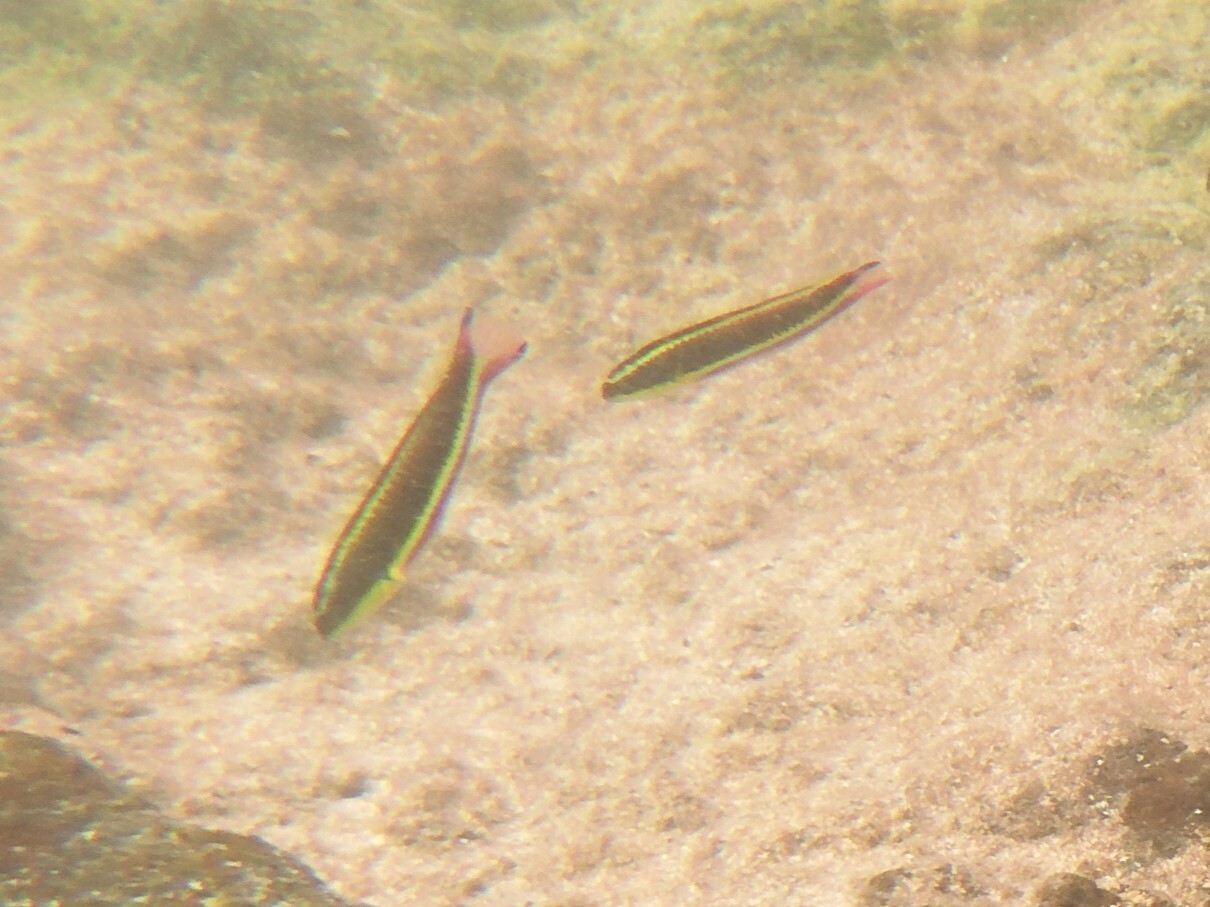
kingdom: Animalia
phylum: Chordata
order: Perciformes
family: Labridae
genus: Thalassoma
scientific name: Thalassoma lucasanum
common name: Cortez rainbow wrasse
